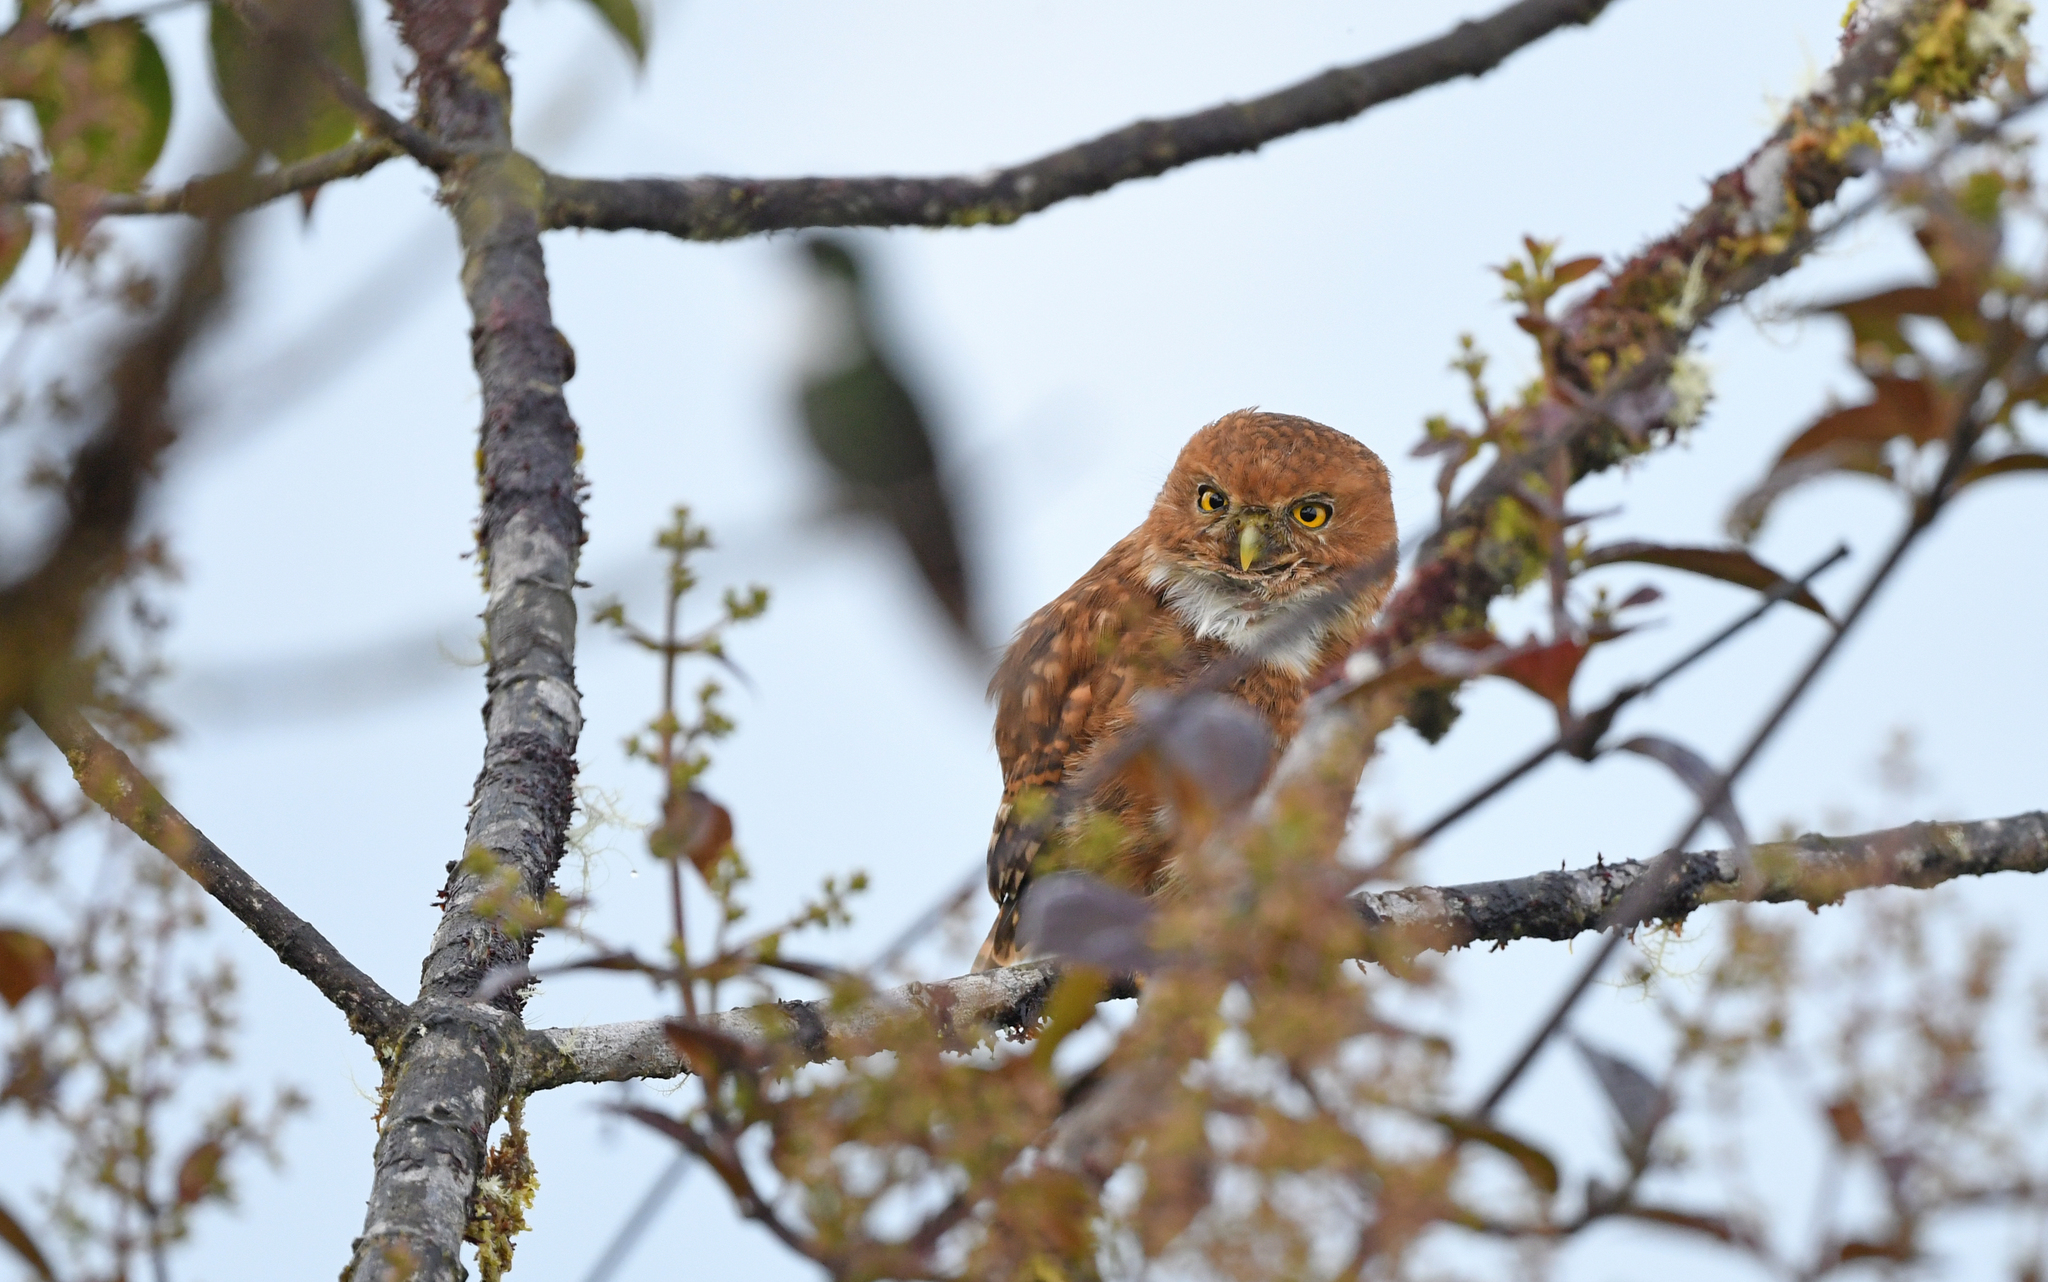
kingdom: Animalia
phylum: Chordata
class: Aves
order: Strigiformes
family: Strigidae
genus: Glaucidium
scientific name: Glaucidium nubicola
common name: Cloud-forest pygmy owl
